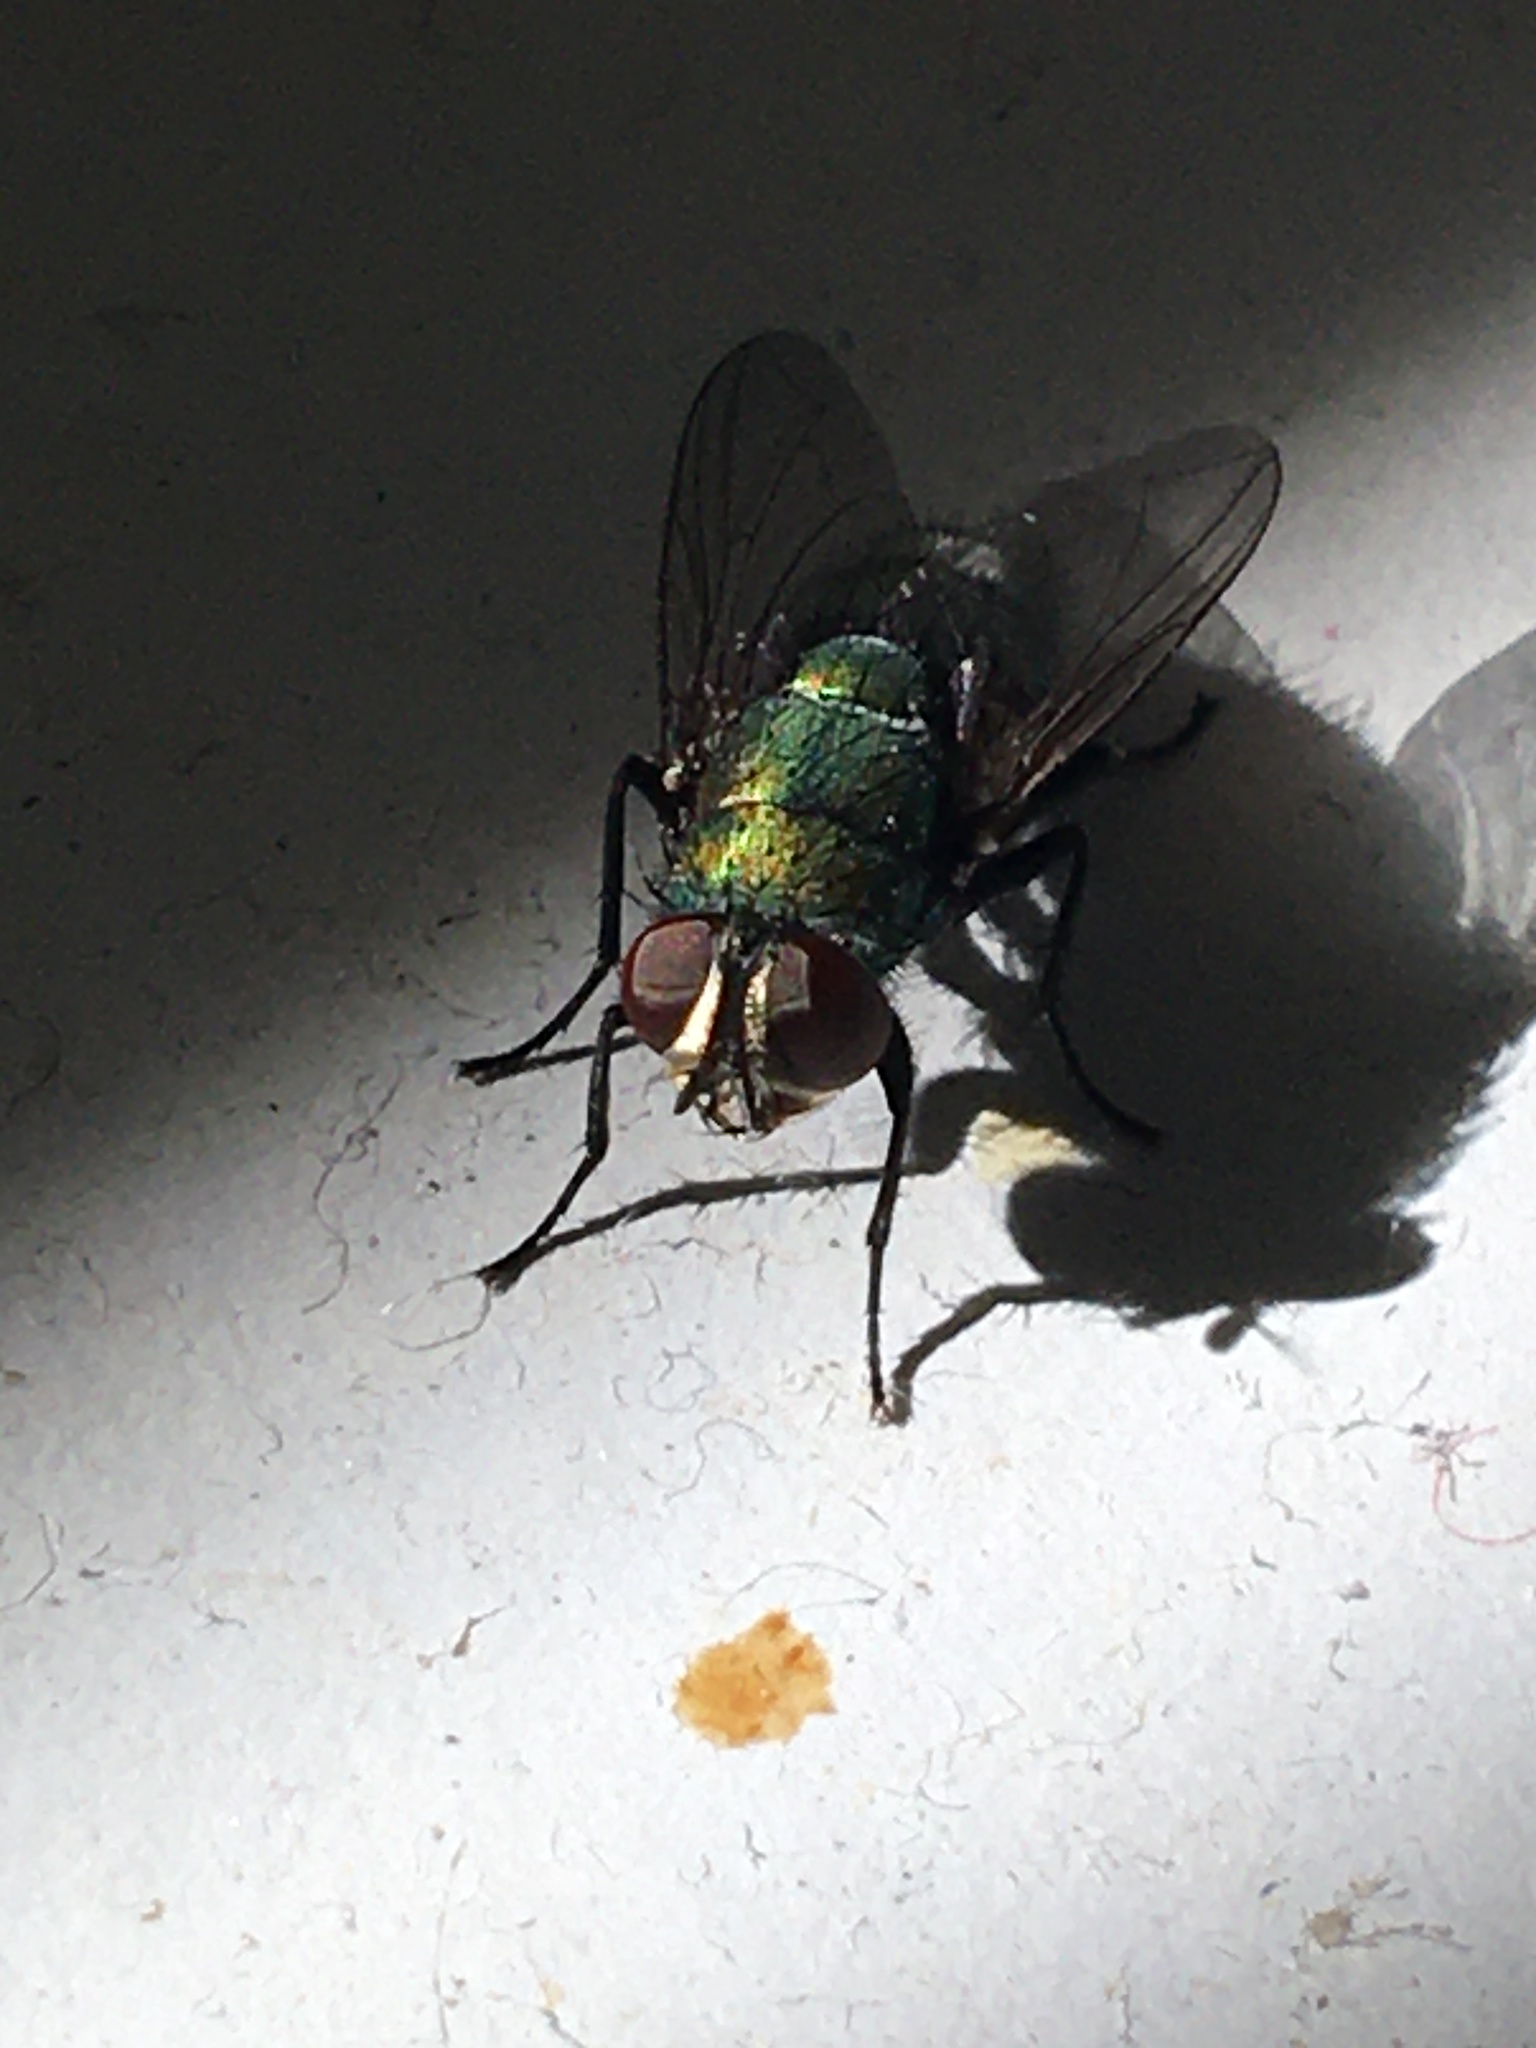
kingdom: Animalia
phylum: Arthropoda
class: Insecta
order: Diptera
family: Calliphoridae
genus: Lucilia
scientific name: Lucilia cuprina
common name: Sheep blow fly
